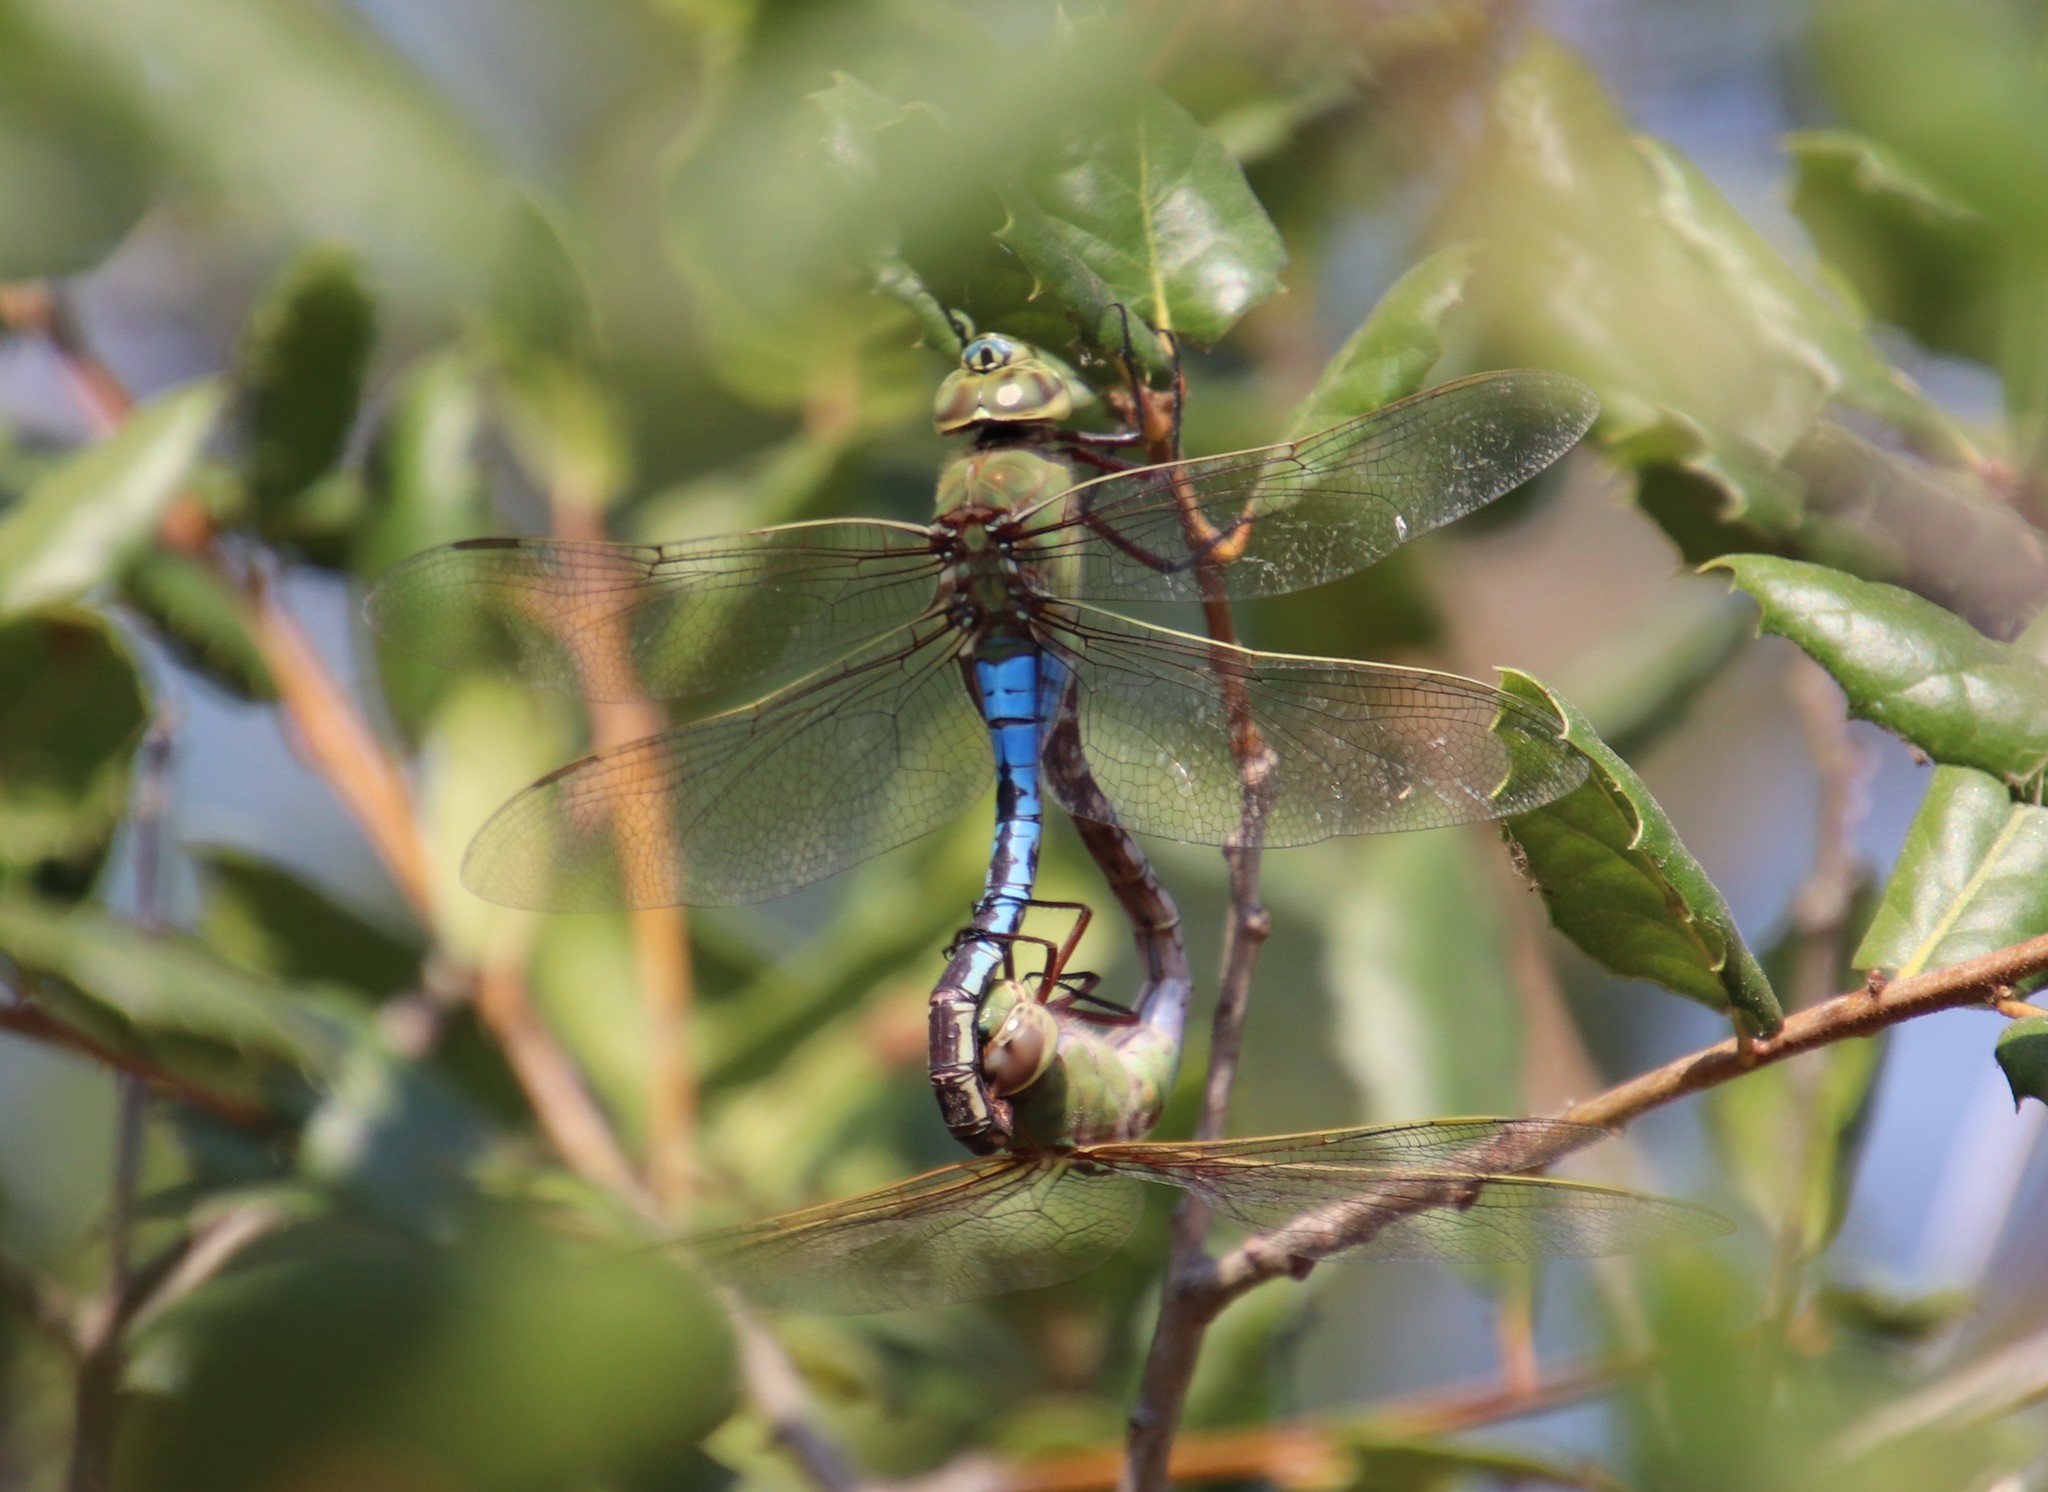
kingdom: Animalia
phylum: Arthropoda
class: Insecta
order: Odonata
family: Aeshnidae
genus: Anax
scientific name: Anax junius
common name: Common green darner
